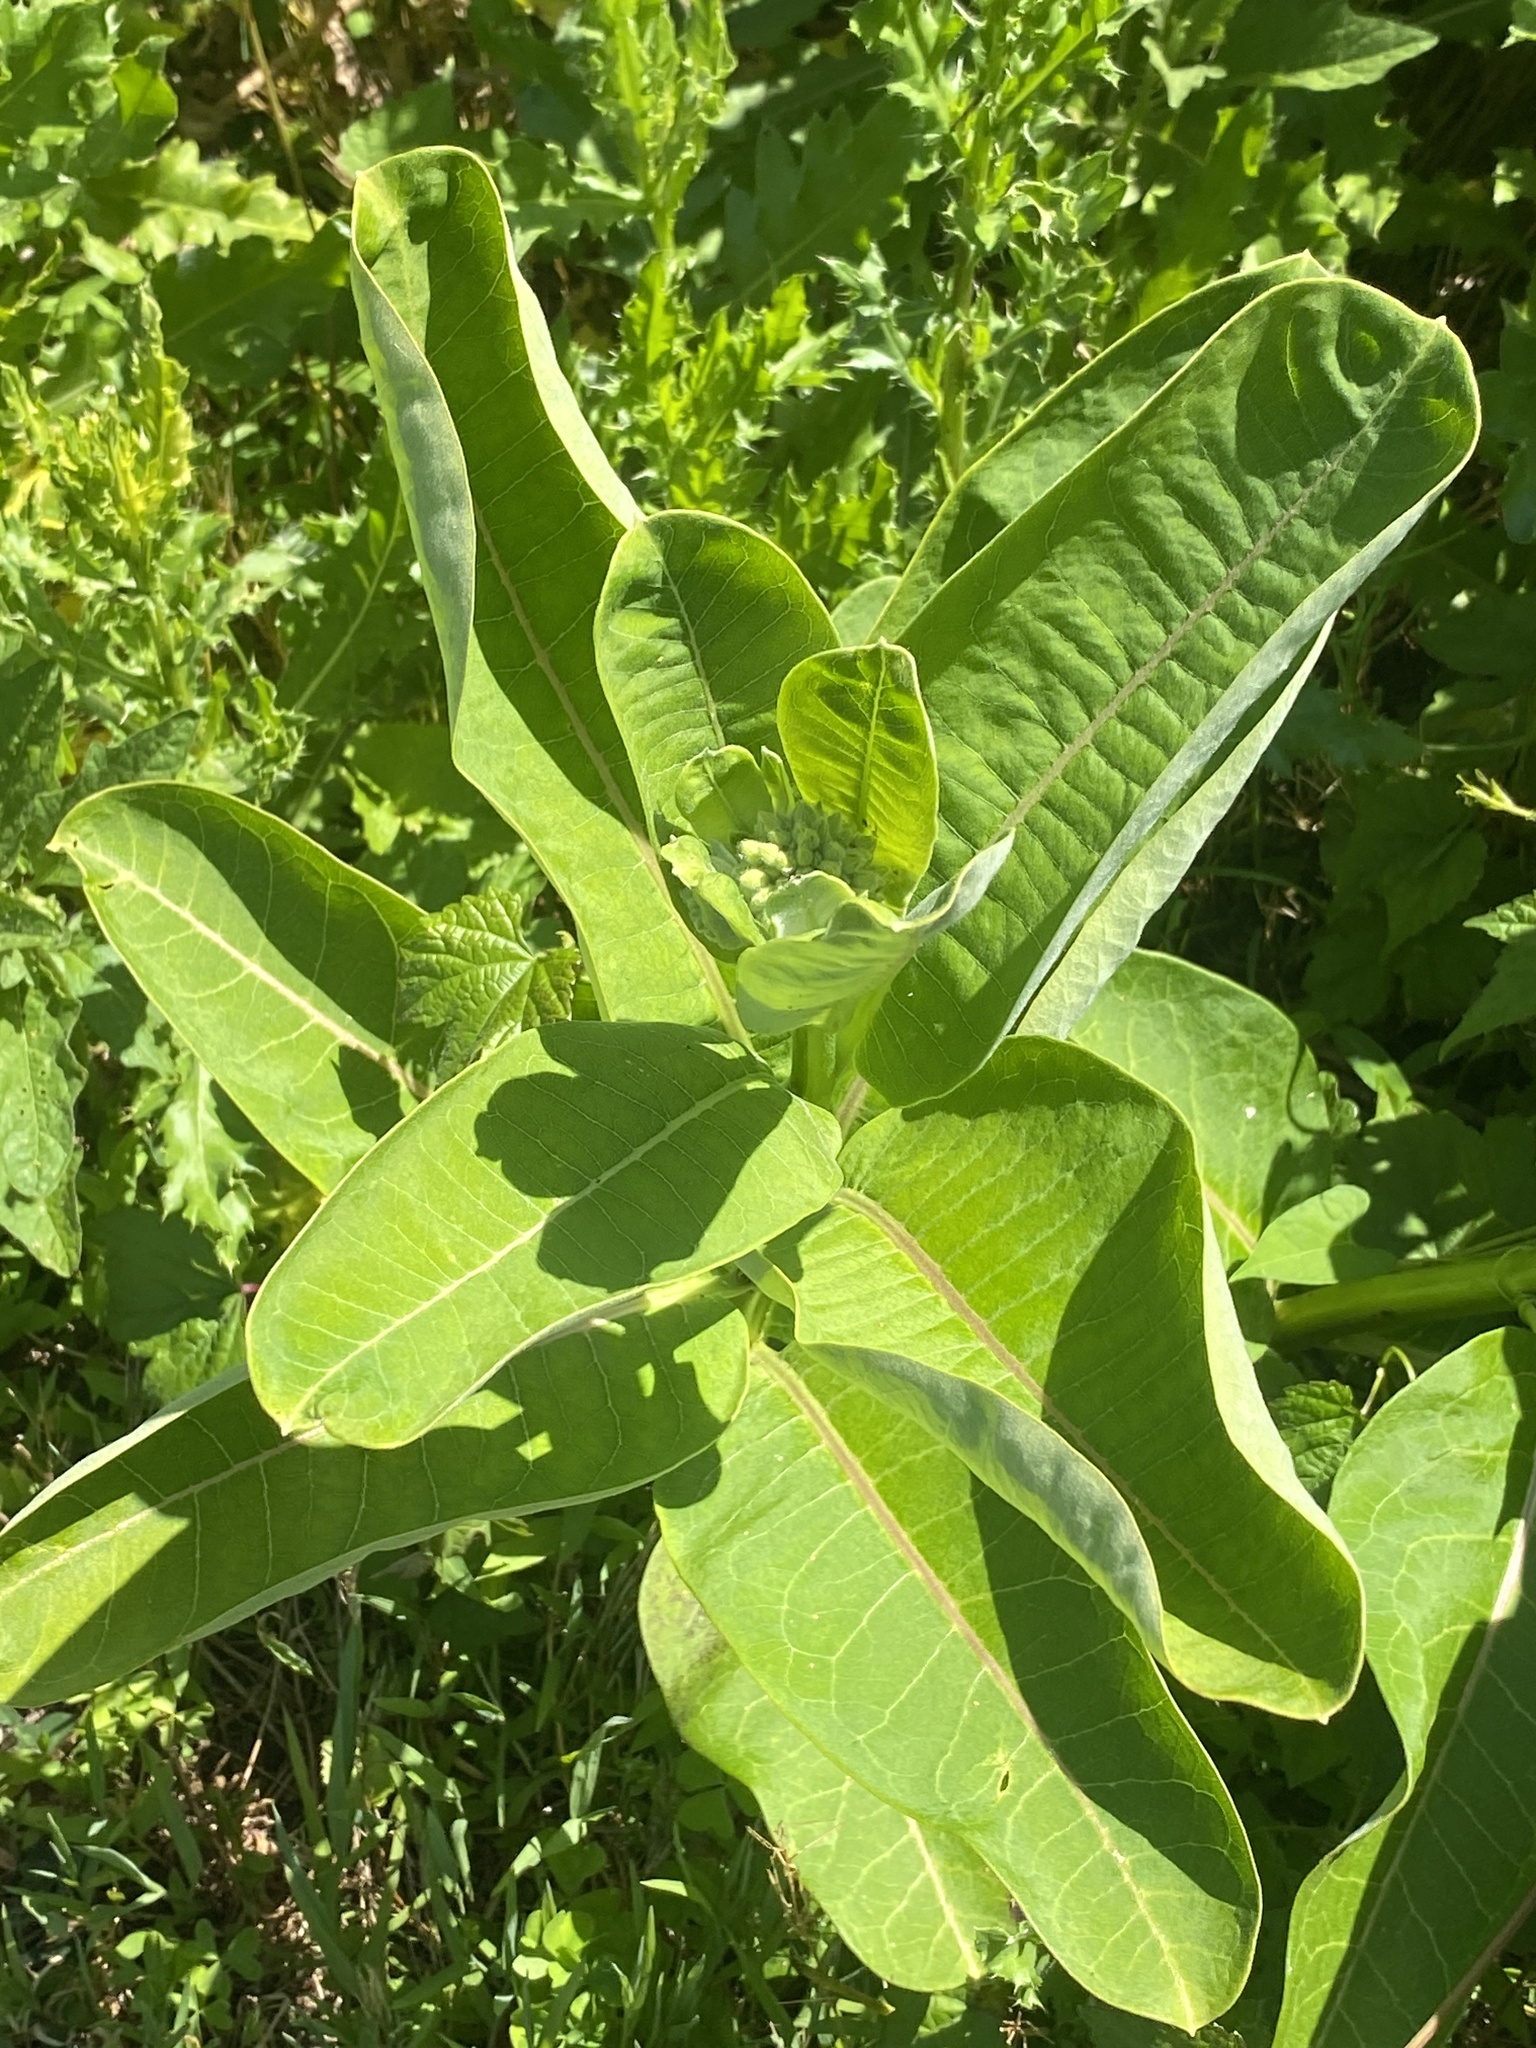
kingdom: Plantae
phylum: Tracheophyta
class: Magnoliopsida
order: Gentianales
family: Apocynaceae
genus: Asclepias
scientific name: Asclepias syriaca
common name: Common milkweed
